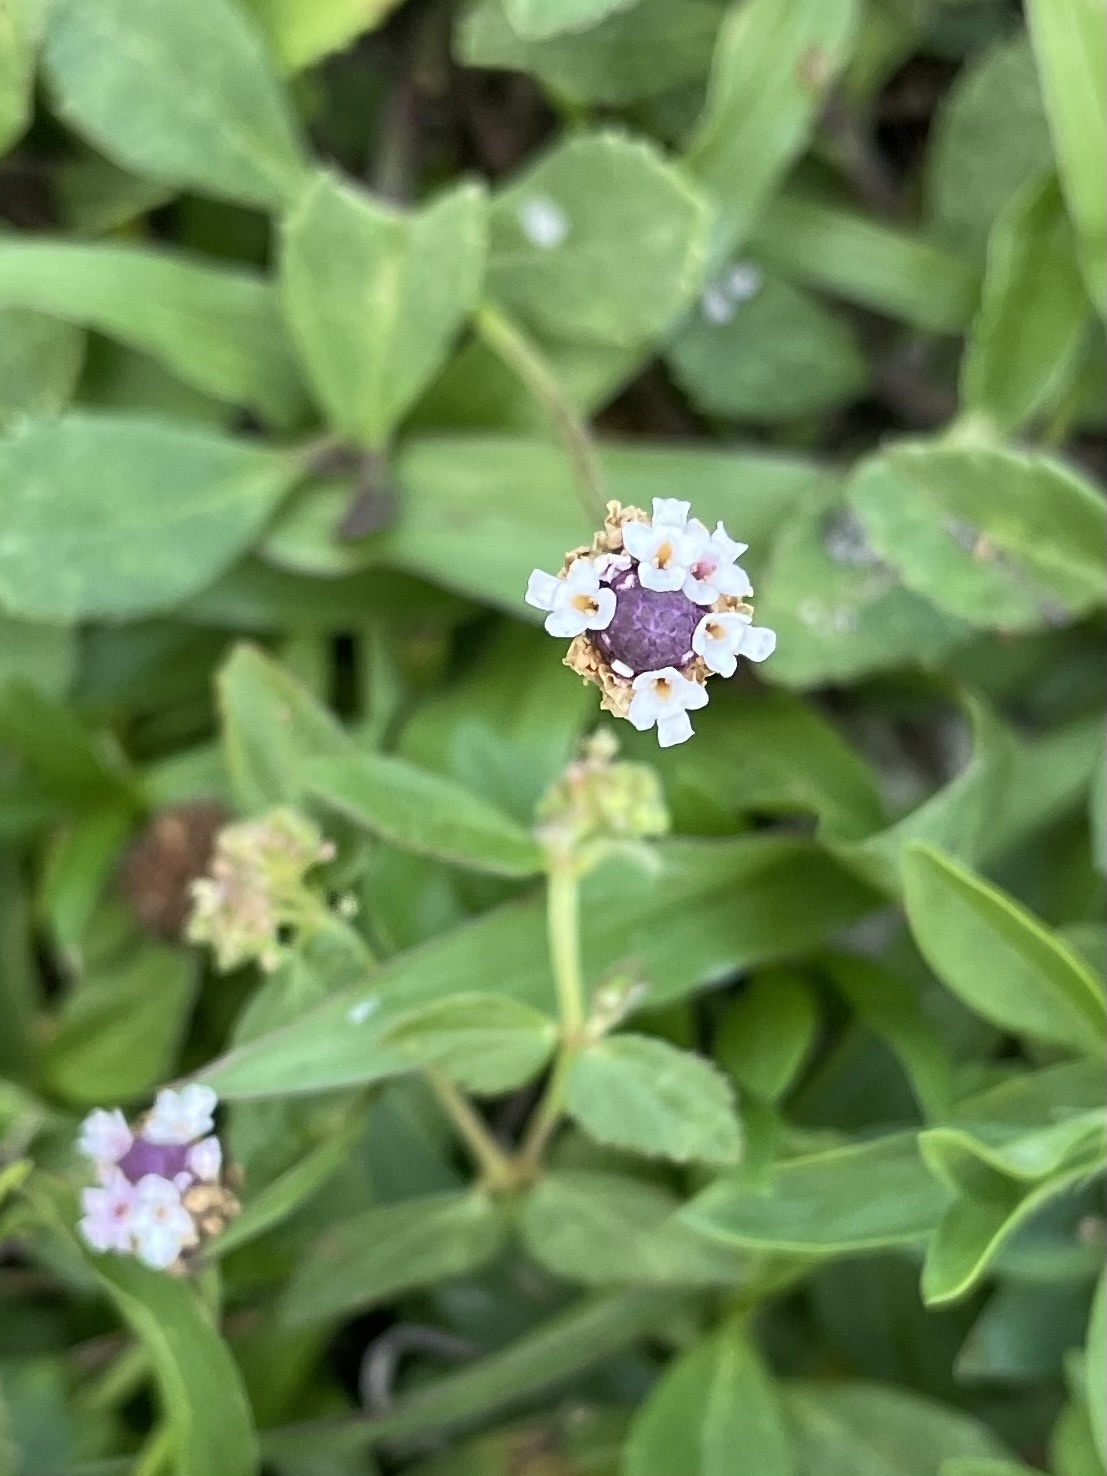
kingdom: Plantae
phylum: Tracheophyta
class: Magnoliopsida
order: Lamiales
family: Verbenaceae
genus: Phyla
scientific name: Phyla nodiflora
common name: Frogfruit
